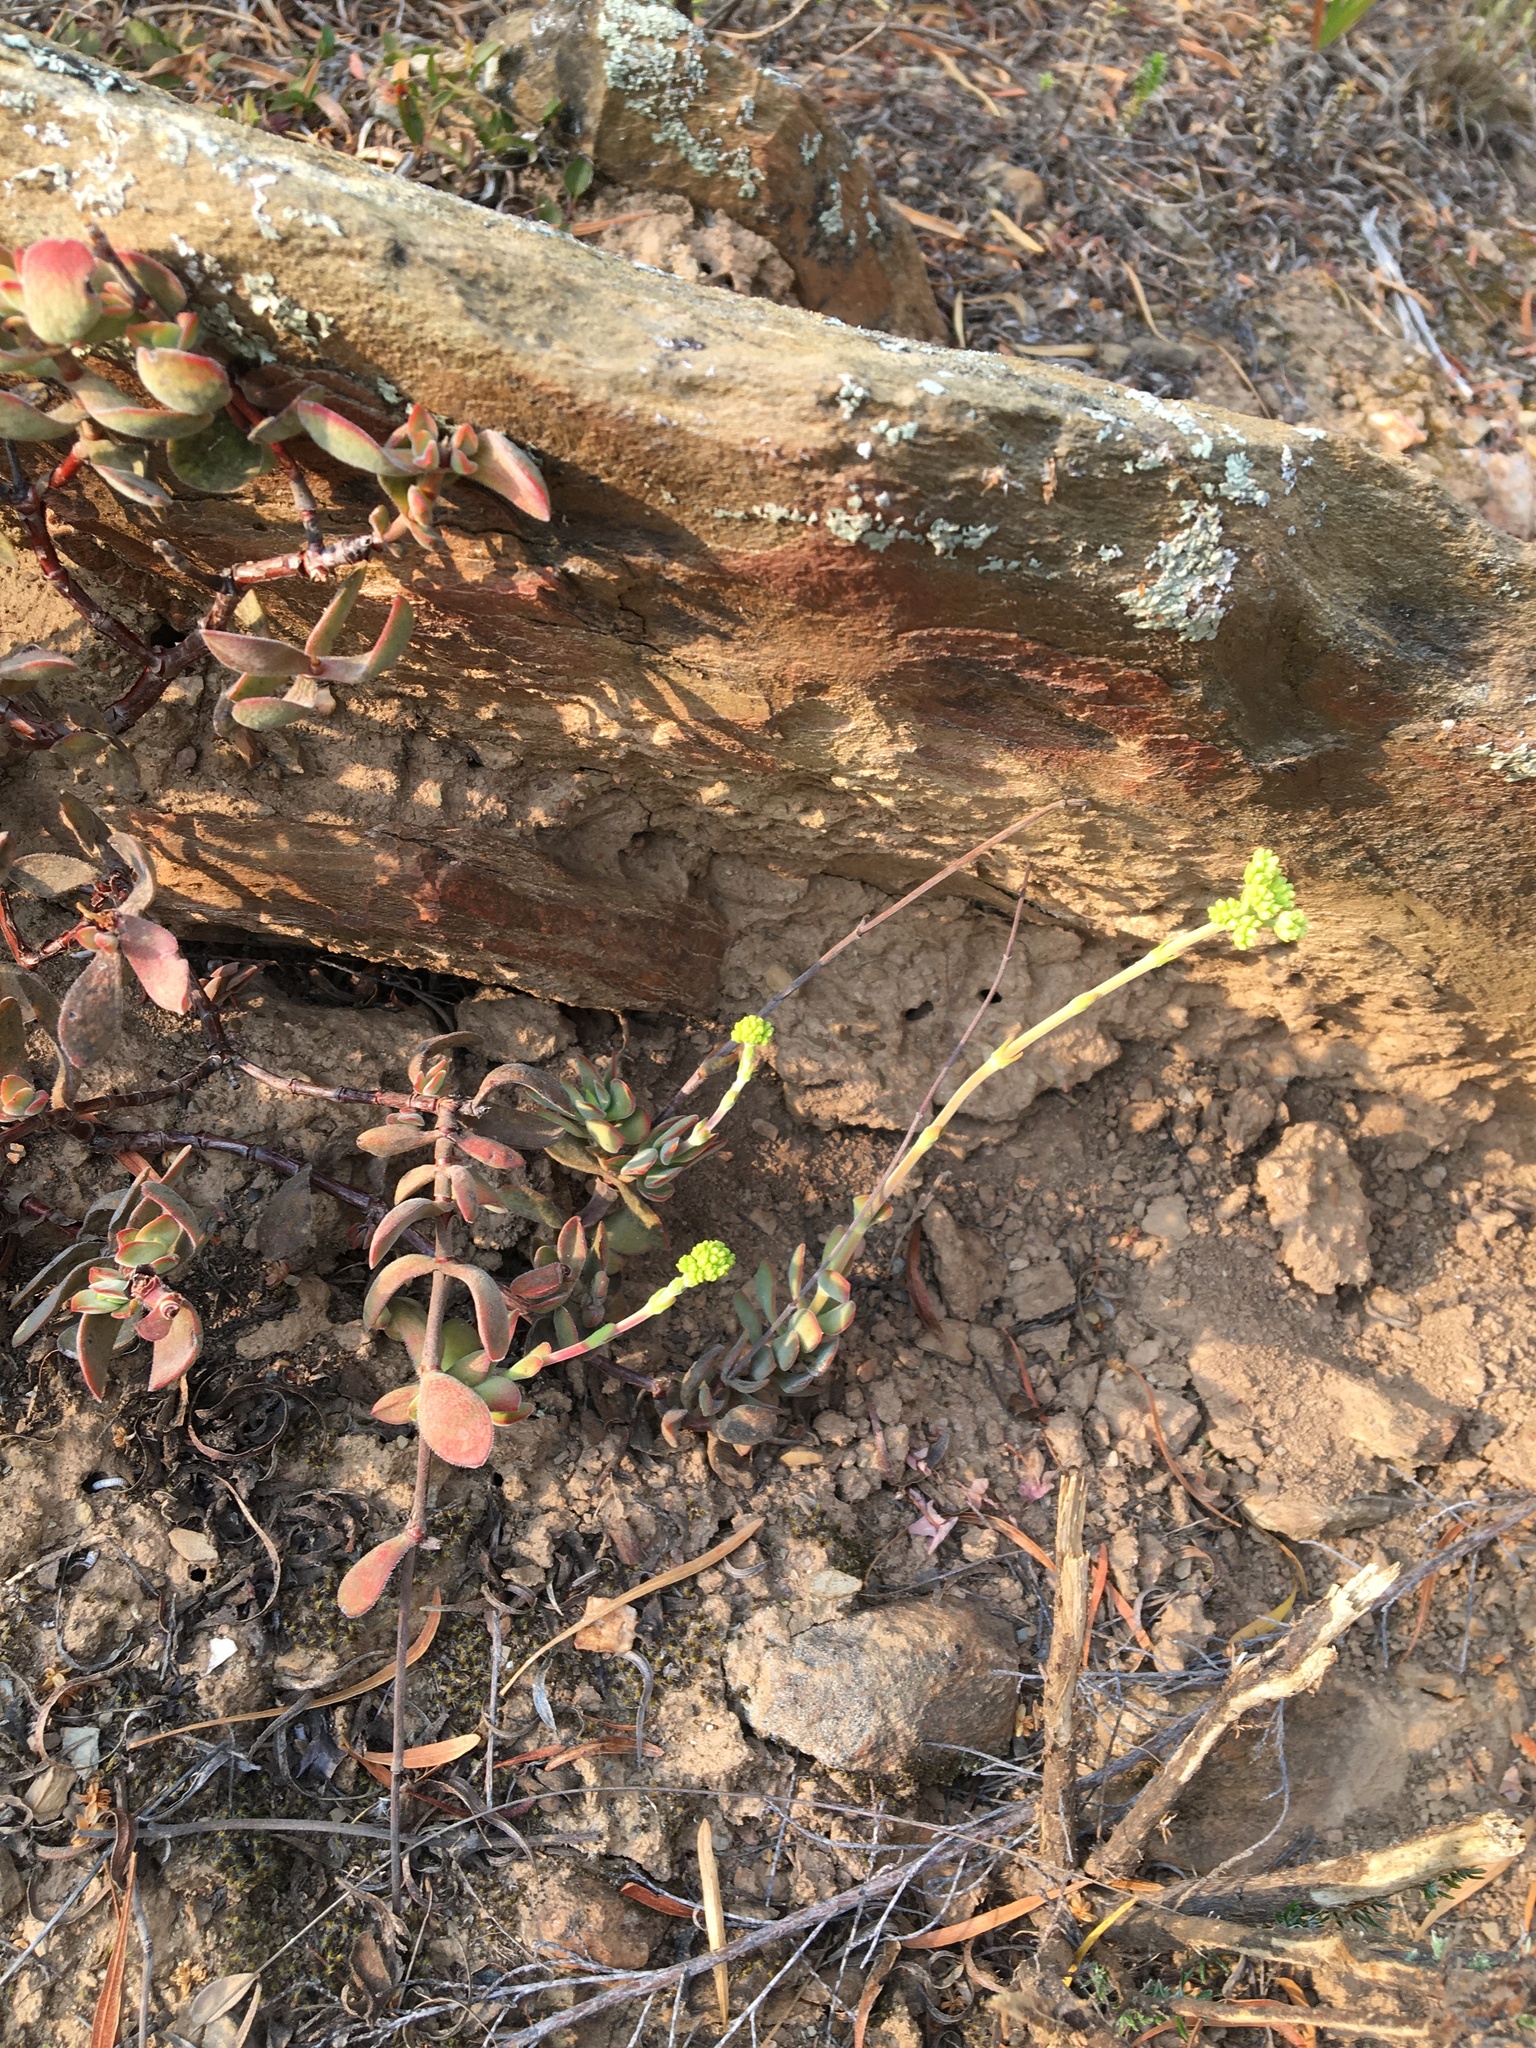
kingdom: Plantae
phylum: Tracheophyta
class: Magnoliopsida
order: Saxifragales
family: Crassulaceae
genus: Crassula
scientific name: Crassula atropurpurea
